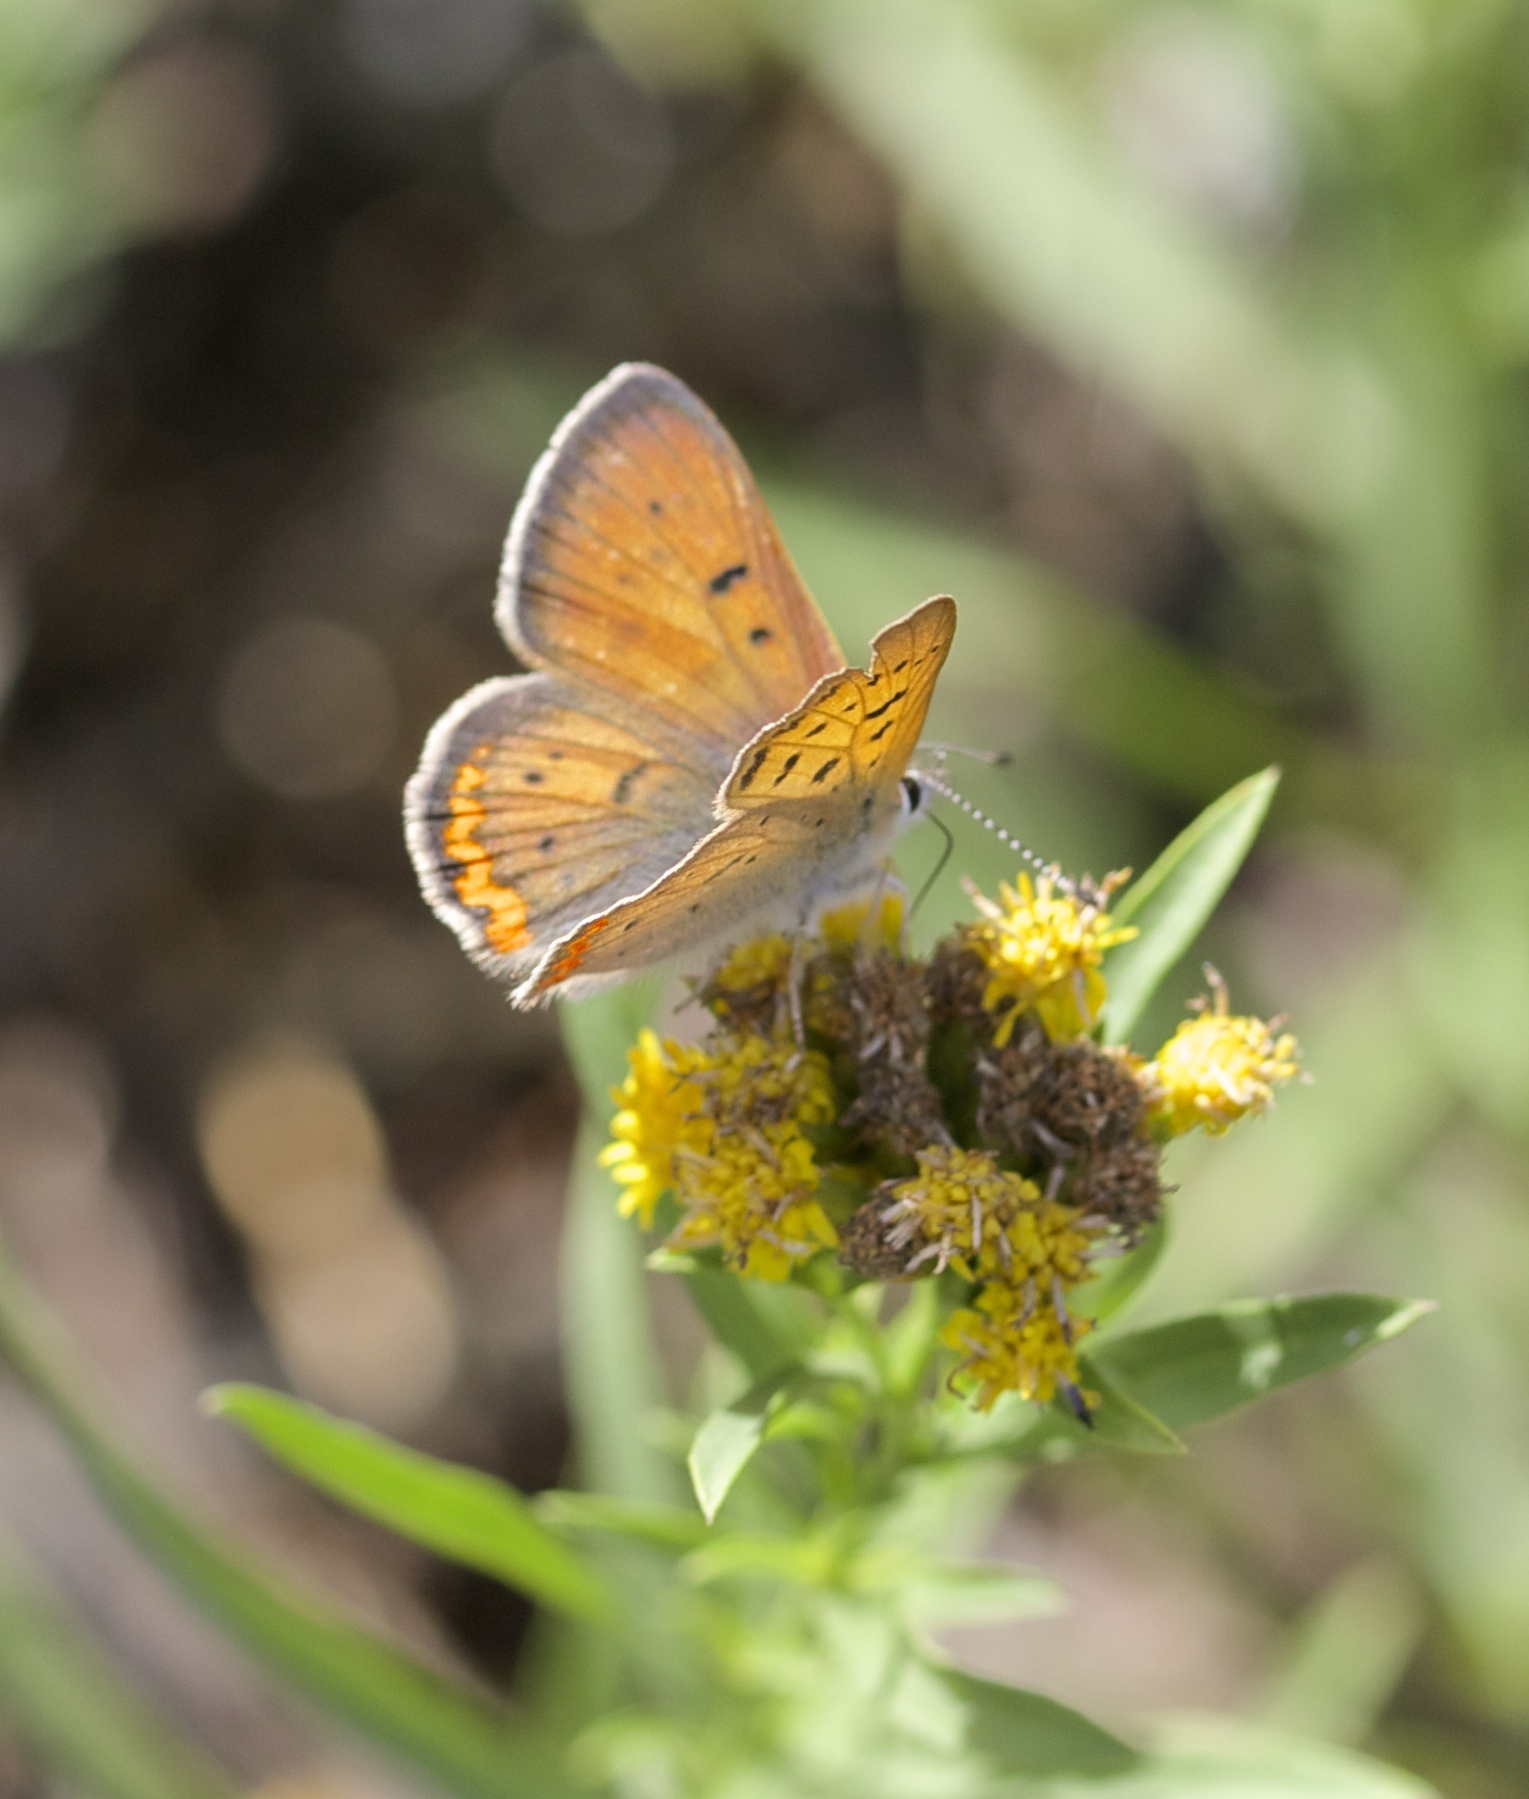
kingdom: Animalia
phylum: Arthropoda
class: Insecta
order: Lepidoptera
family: Lycaenidae
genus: Tharsalea
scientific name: Tharsalea helloides
